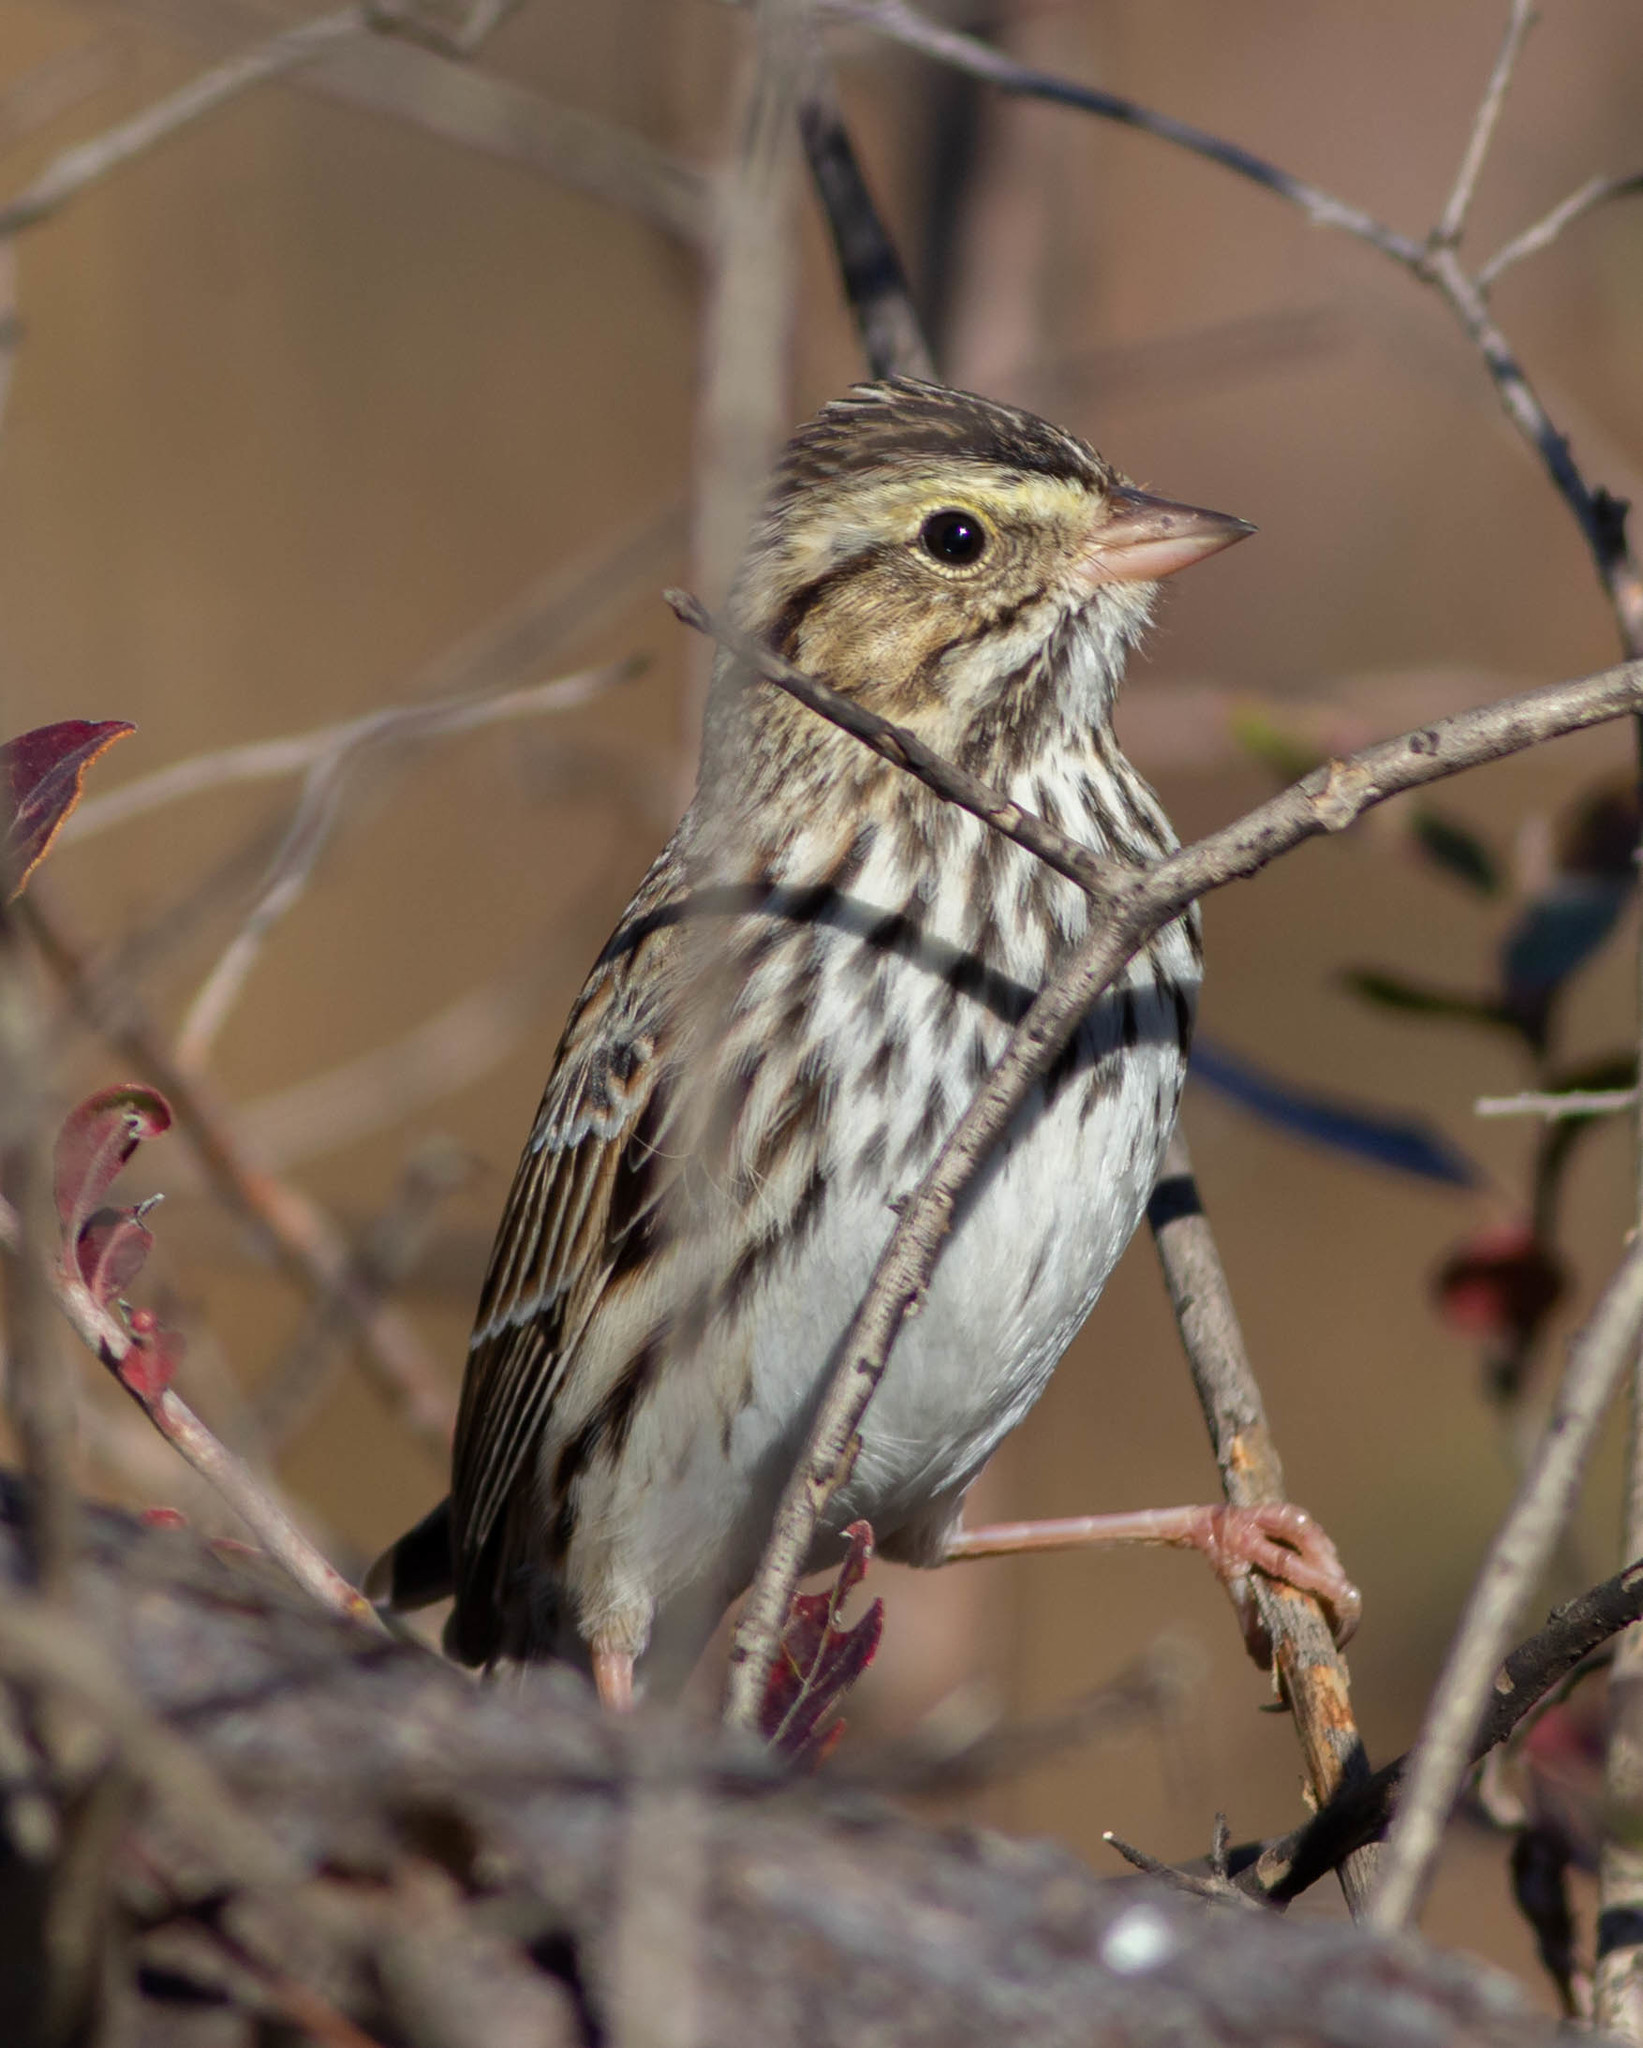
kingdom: Animalia
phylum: Chordata
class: Aves
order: Passeriformes
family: Passerellidae
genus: Passerculus
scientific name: Passerculus sandwichensis
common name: Savannah sparrow
